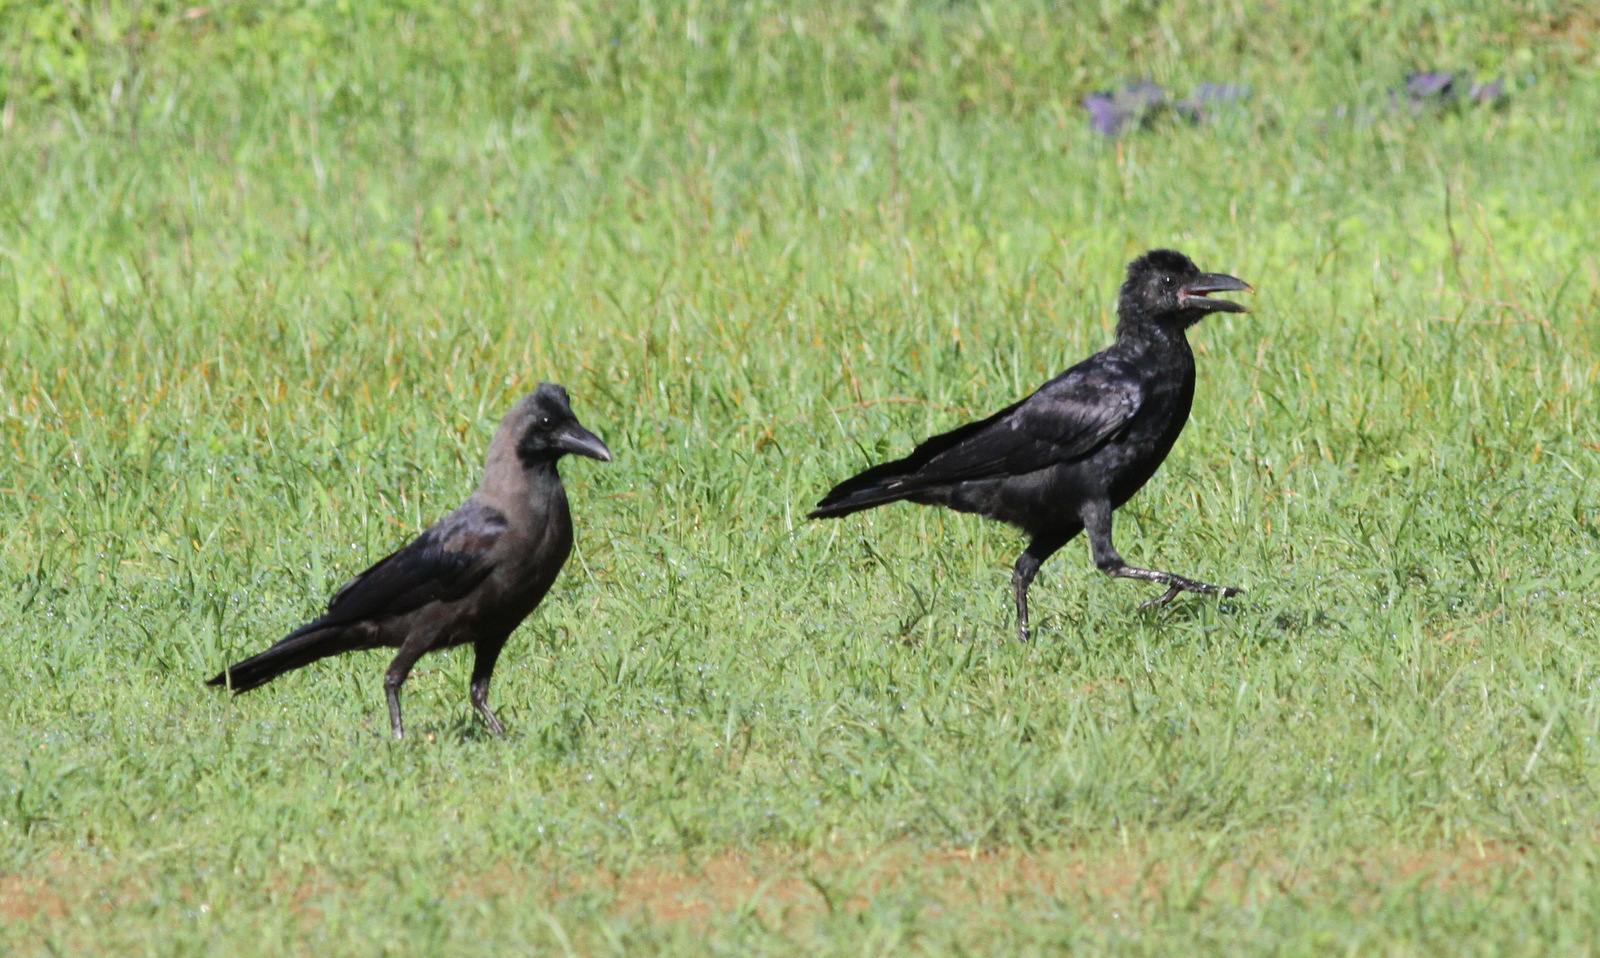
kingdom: Animalia
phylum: Chordata
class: Aves
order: Passeriformes
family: Corvidae
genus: Corvus
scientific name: Corvus macrorhynchos
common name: Large-billed crow
